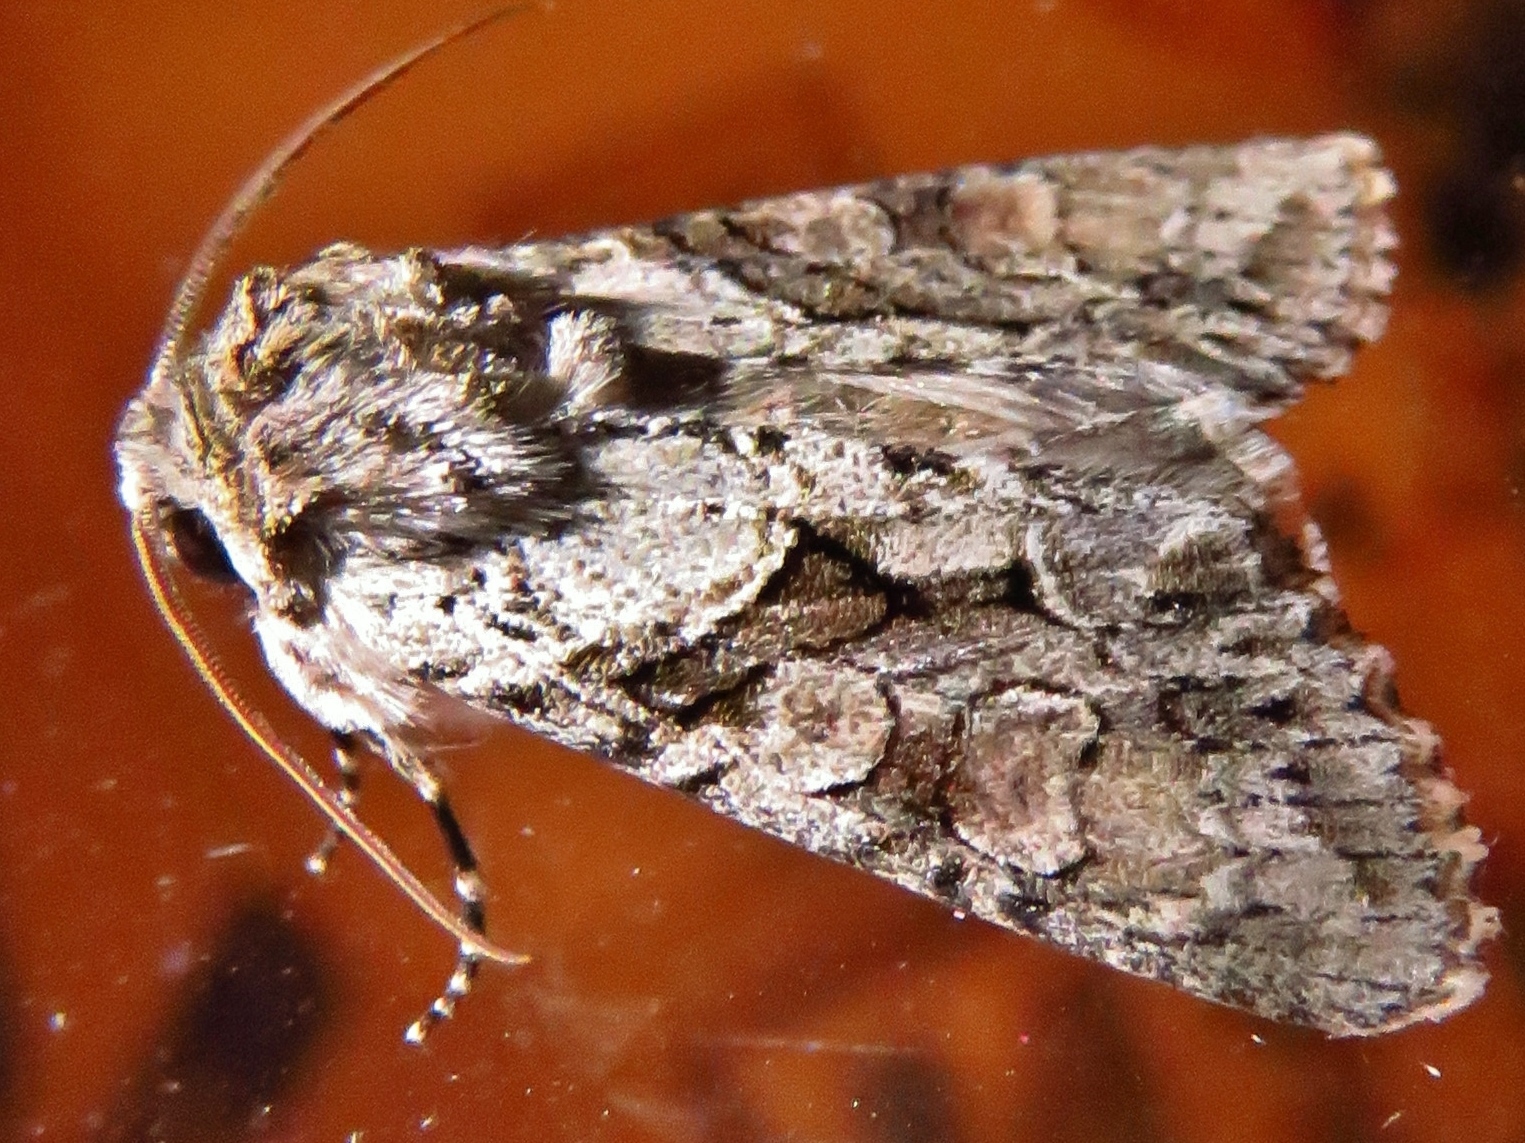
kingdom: Animalia
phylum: Arthropoda
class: Insecta
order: Lepidoptera
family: Noctuidae
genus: Achatia
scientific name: Achatia distincta
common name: Distinct quaker
